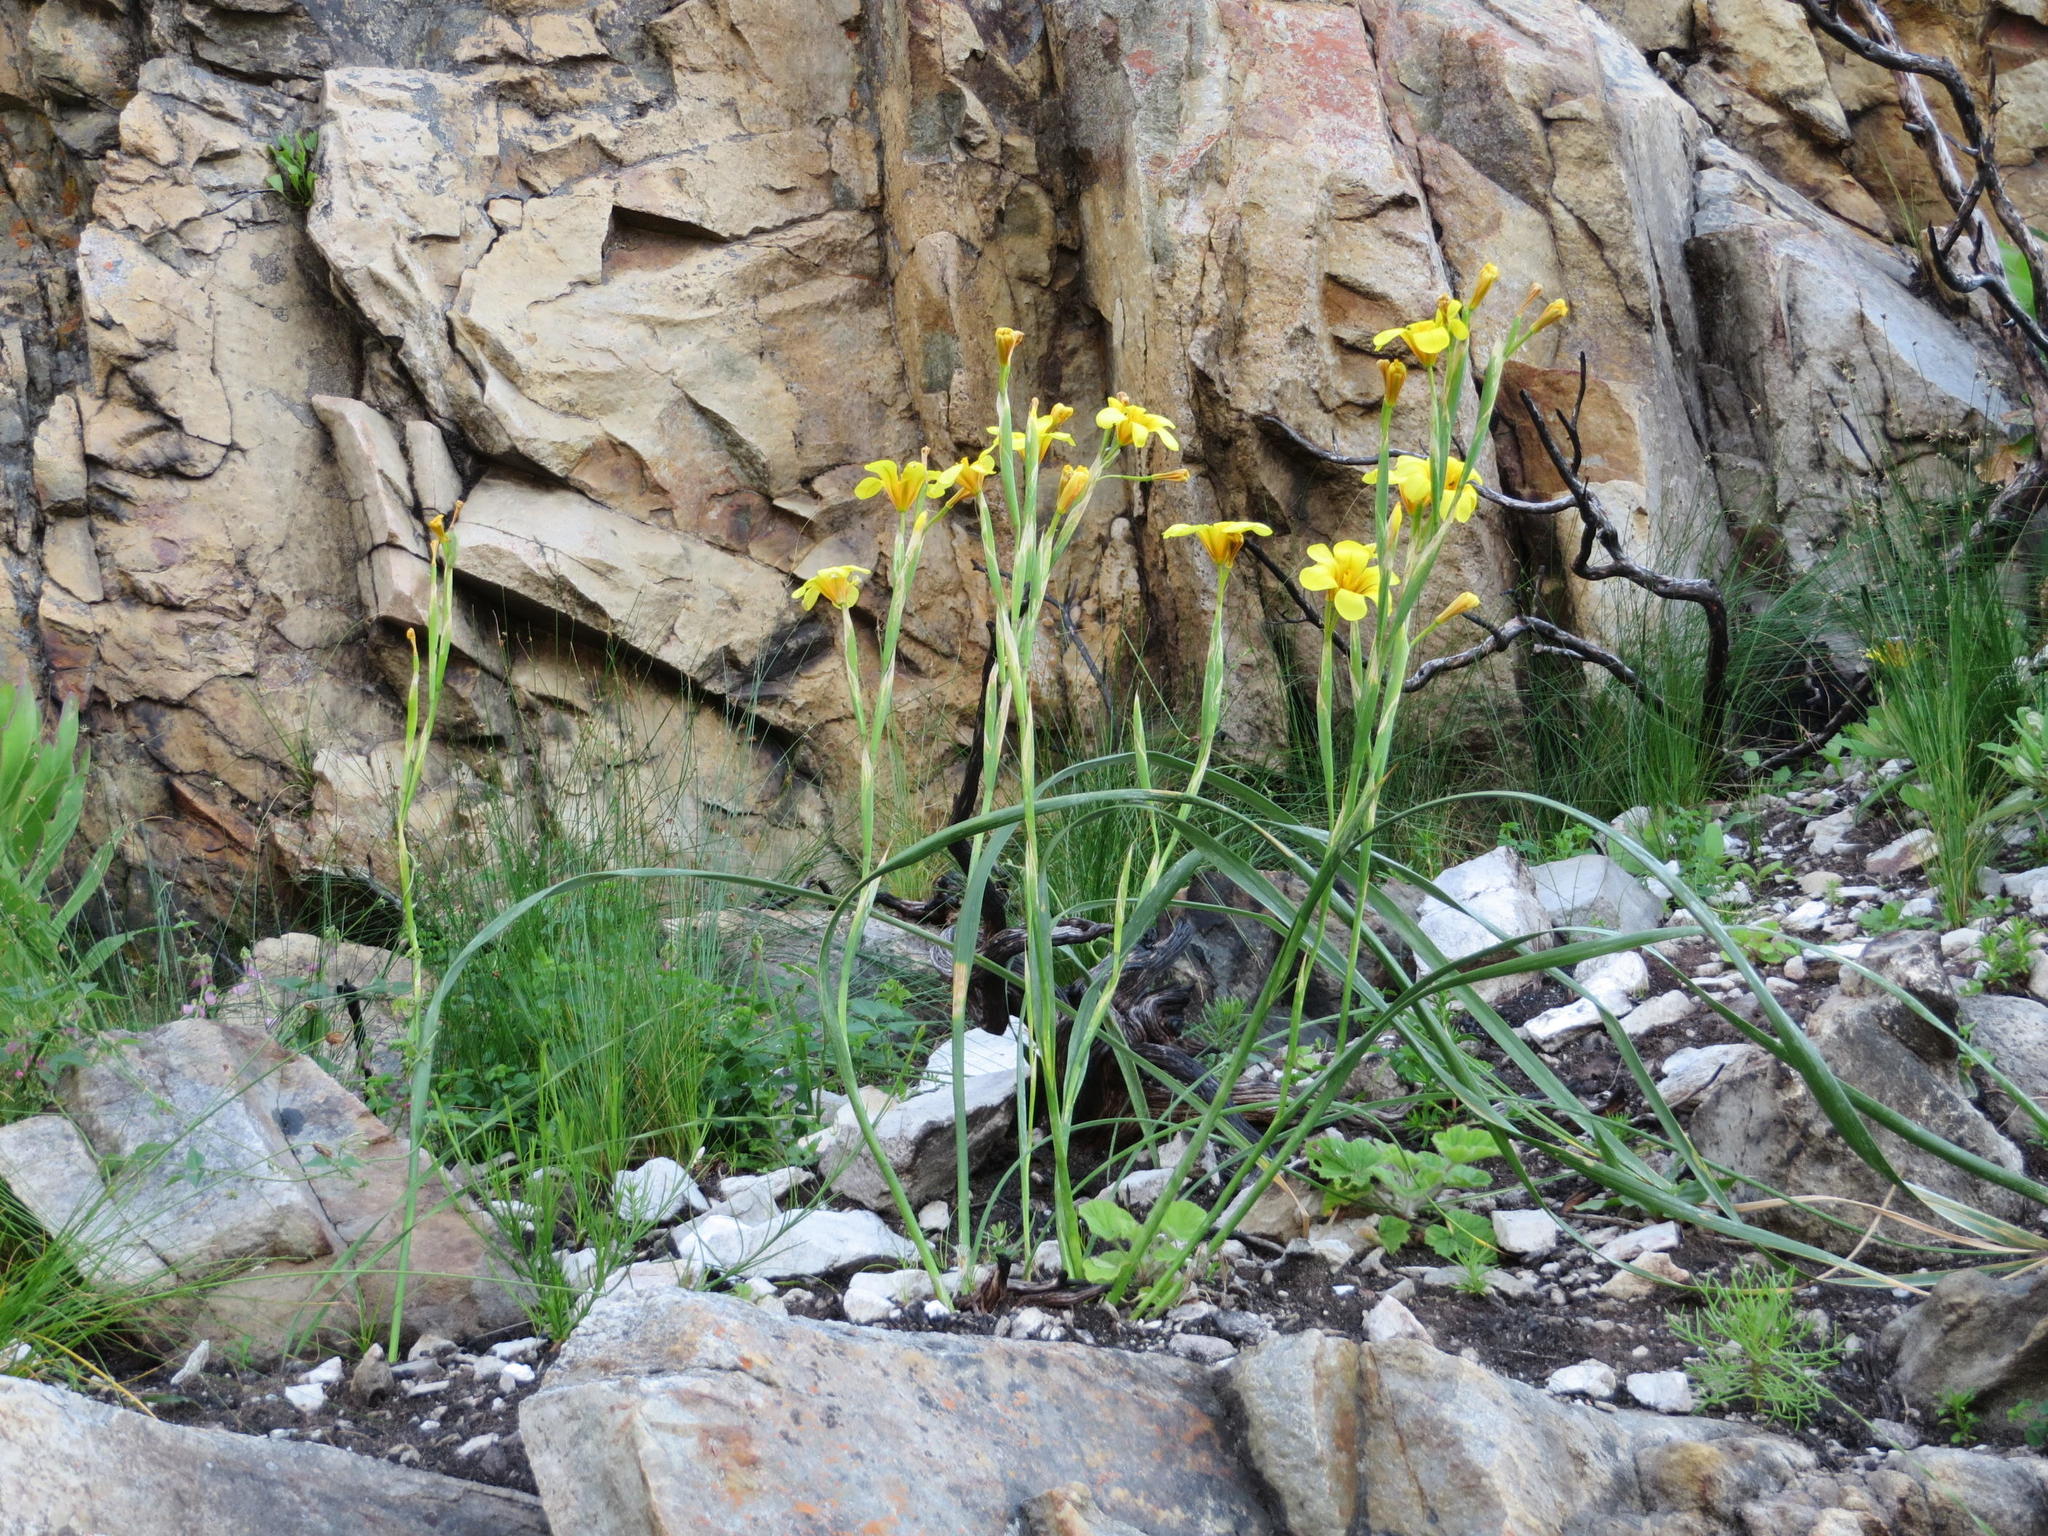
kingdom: Plantae
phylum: Tracheophyta
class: Liliopsida
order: Asparagales
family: Iridaceae
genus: Moraea
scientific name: Moraea ochroleuca
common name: Red tulp
